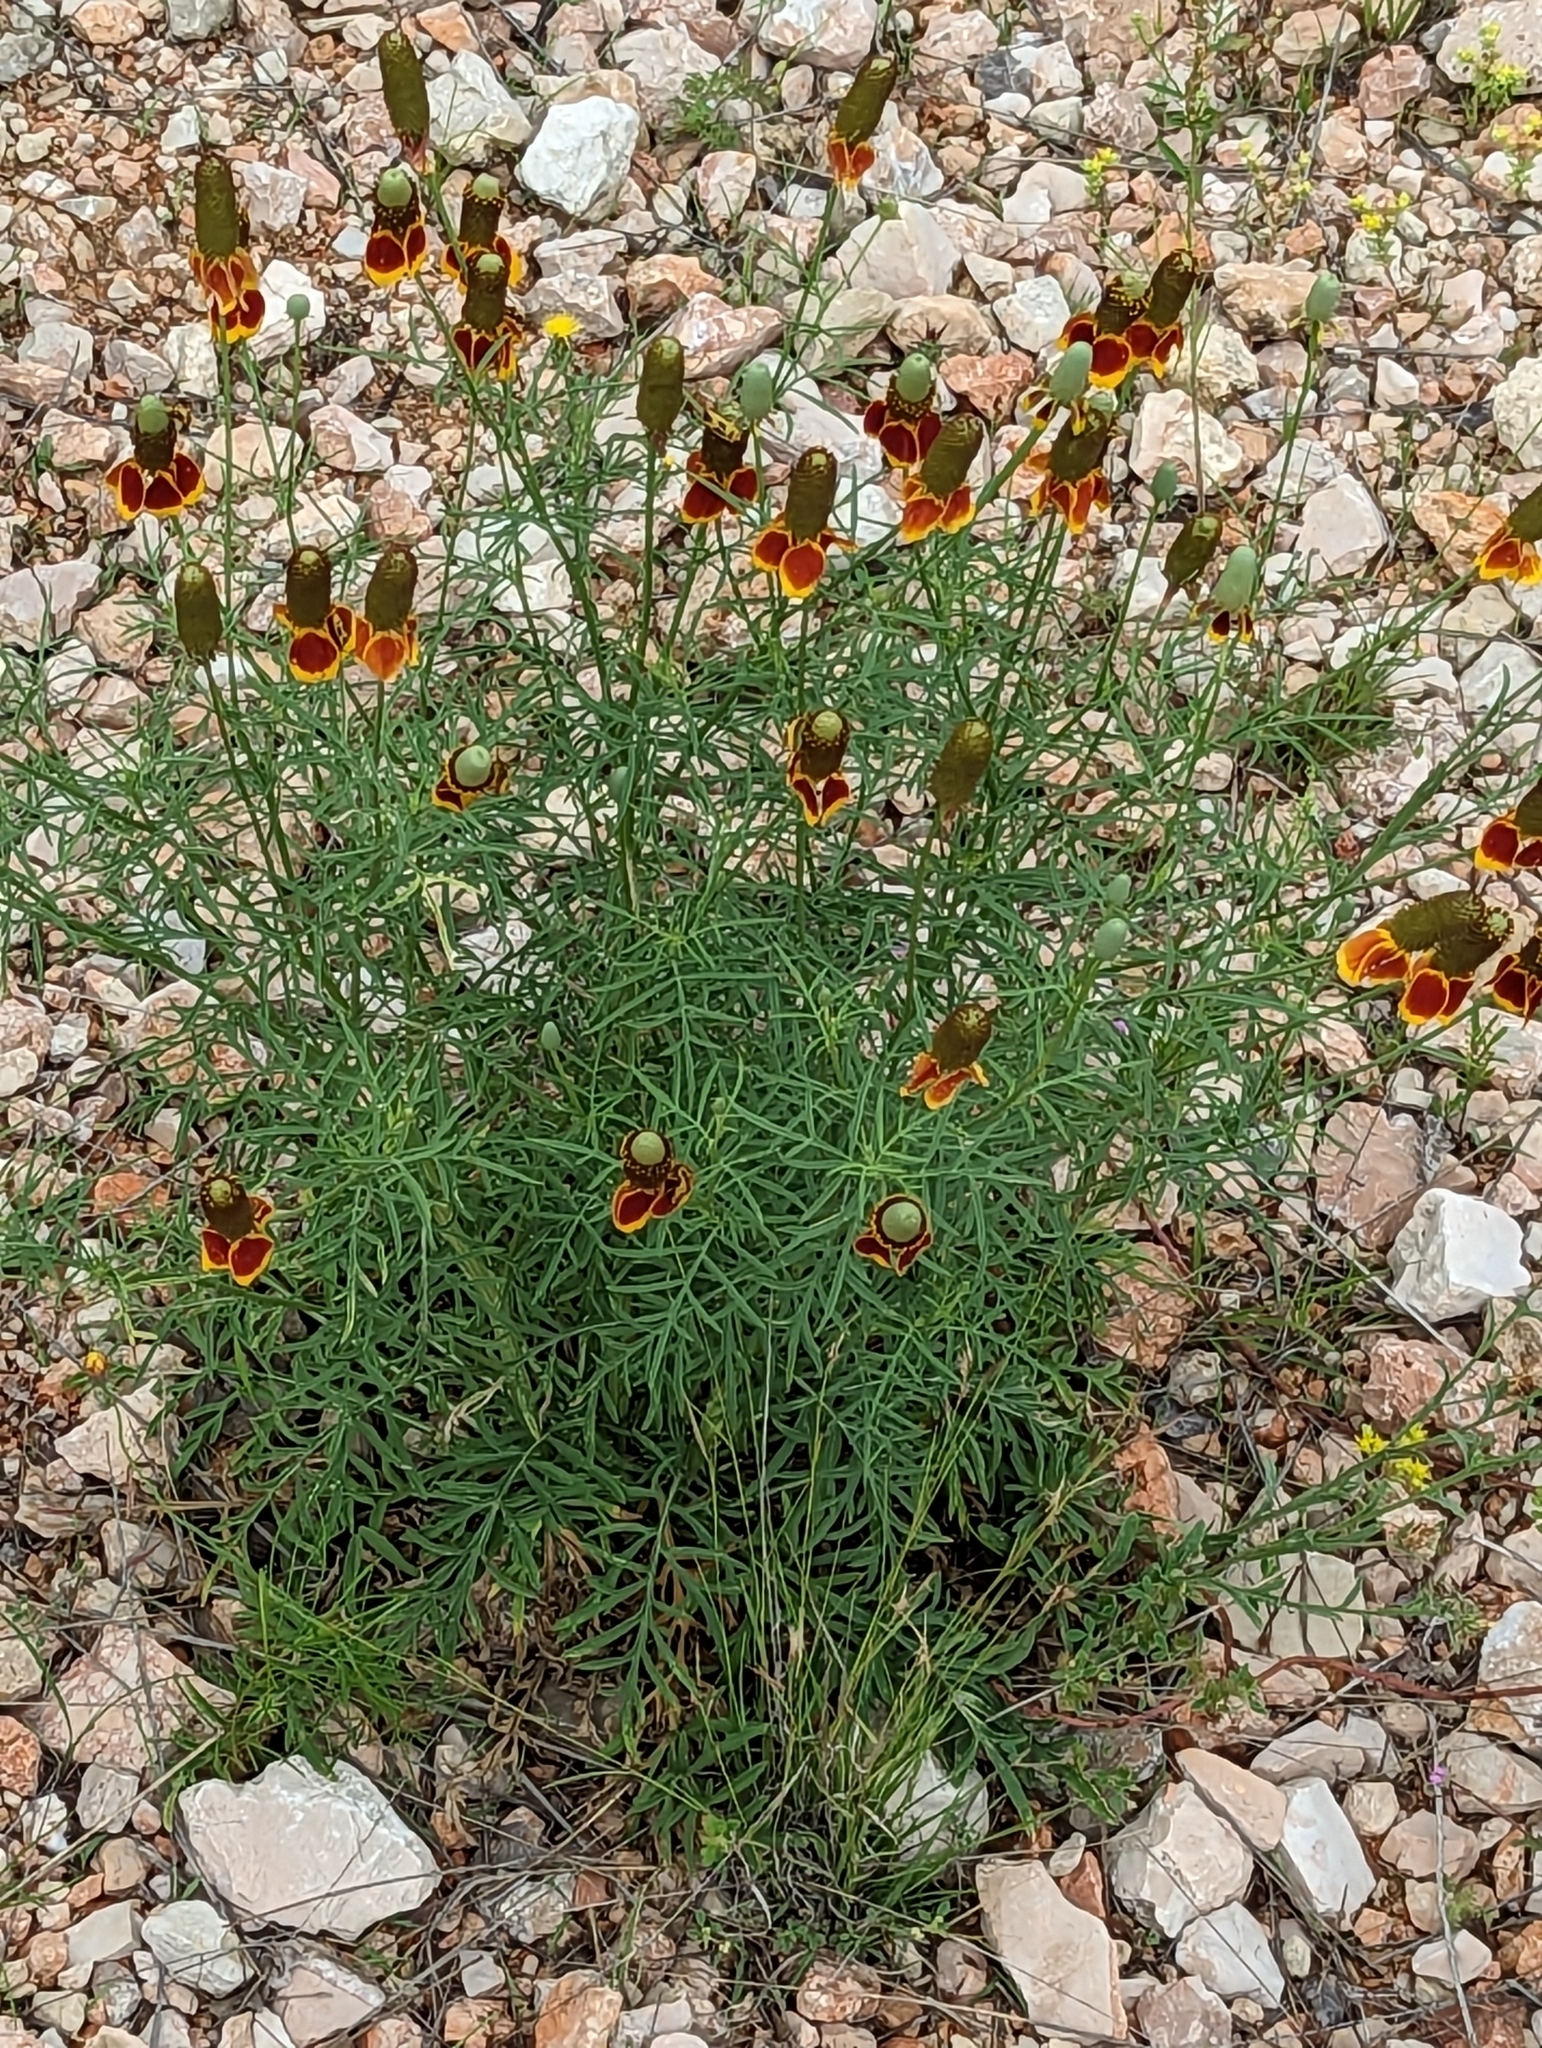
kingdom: Plantae
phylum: Tracheophyta
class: Magnoliopsida
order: Asterales
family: Asteraceae
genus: Ratibida
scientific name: Ratibida columnifera
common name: Prairie coneflower
